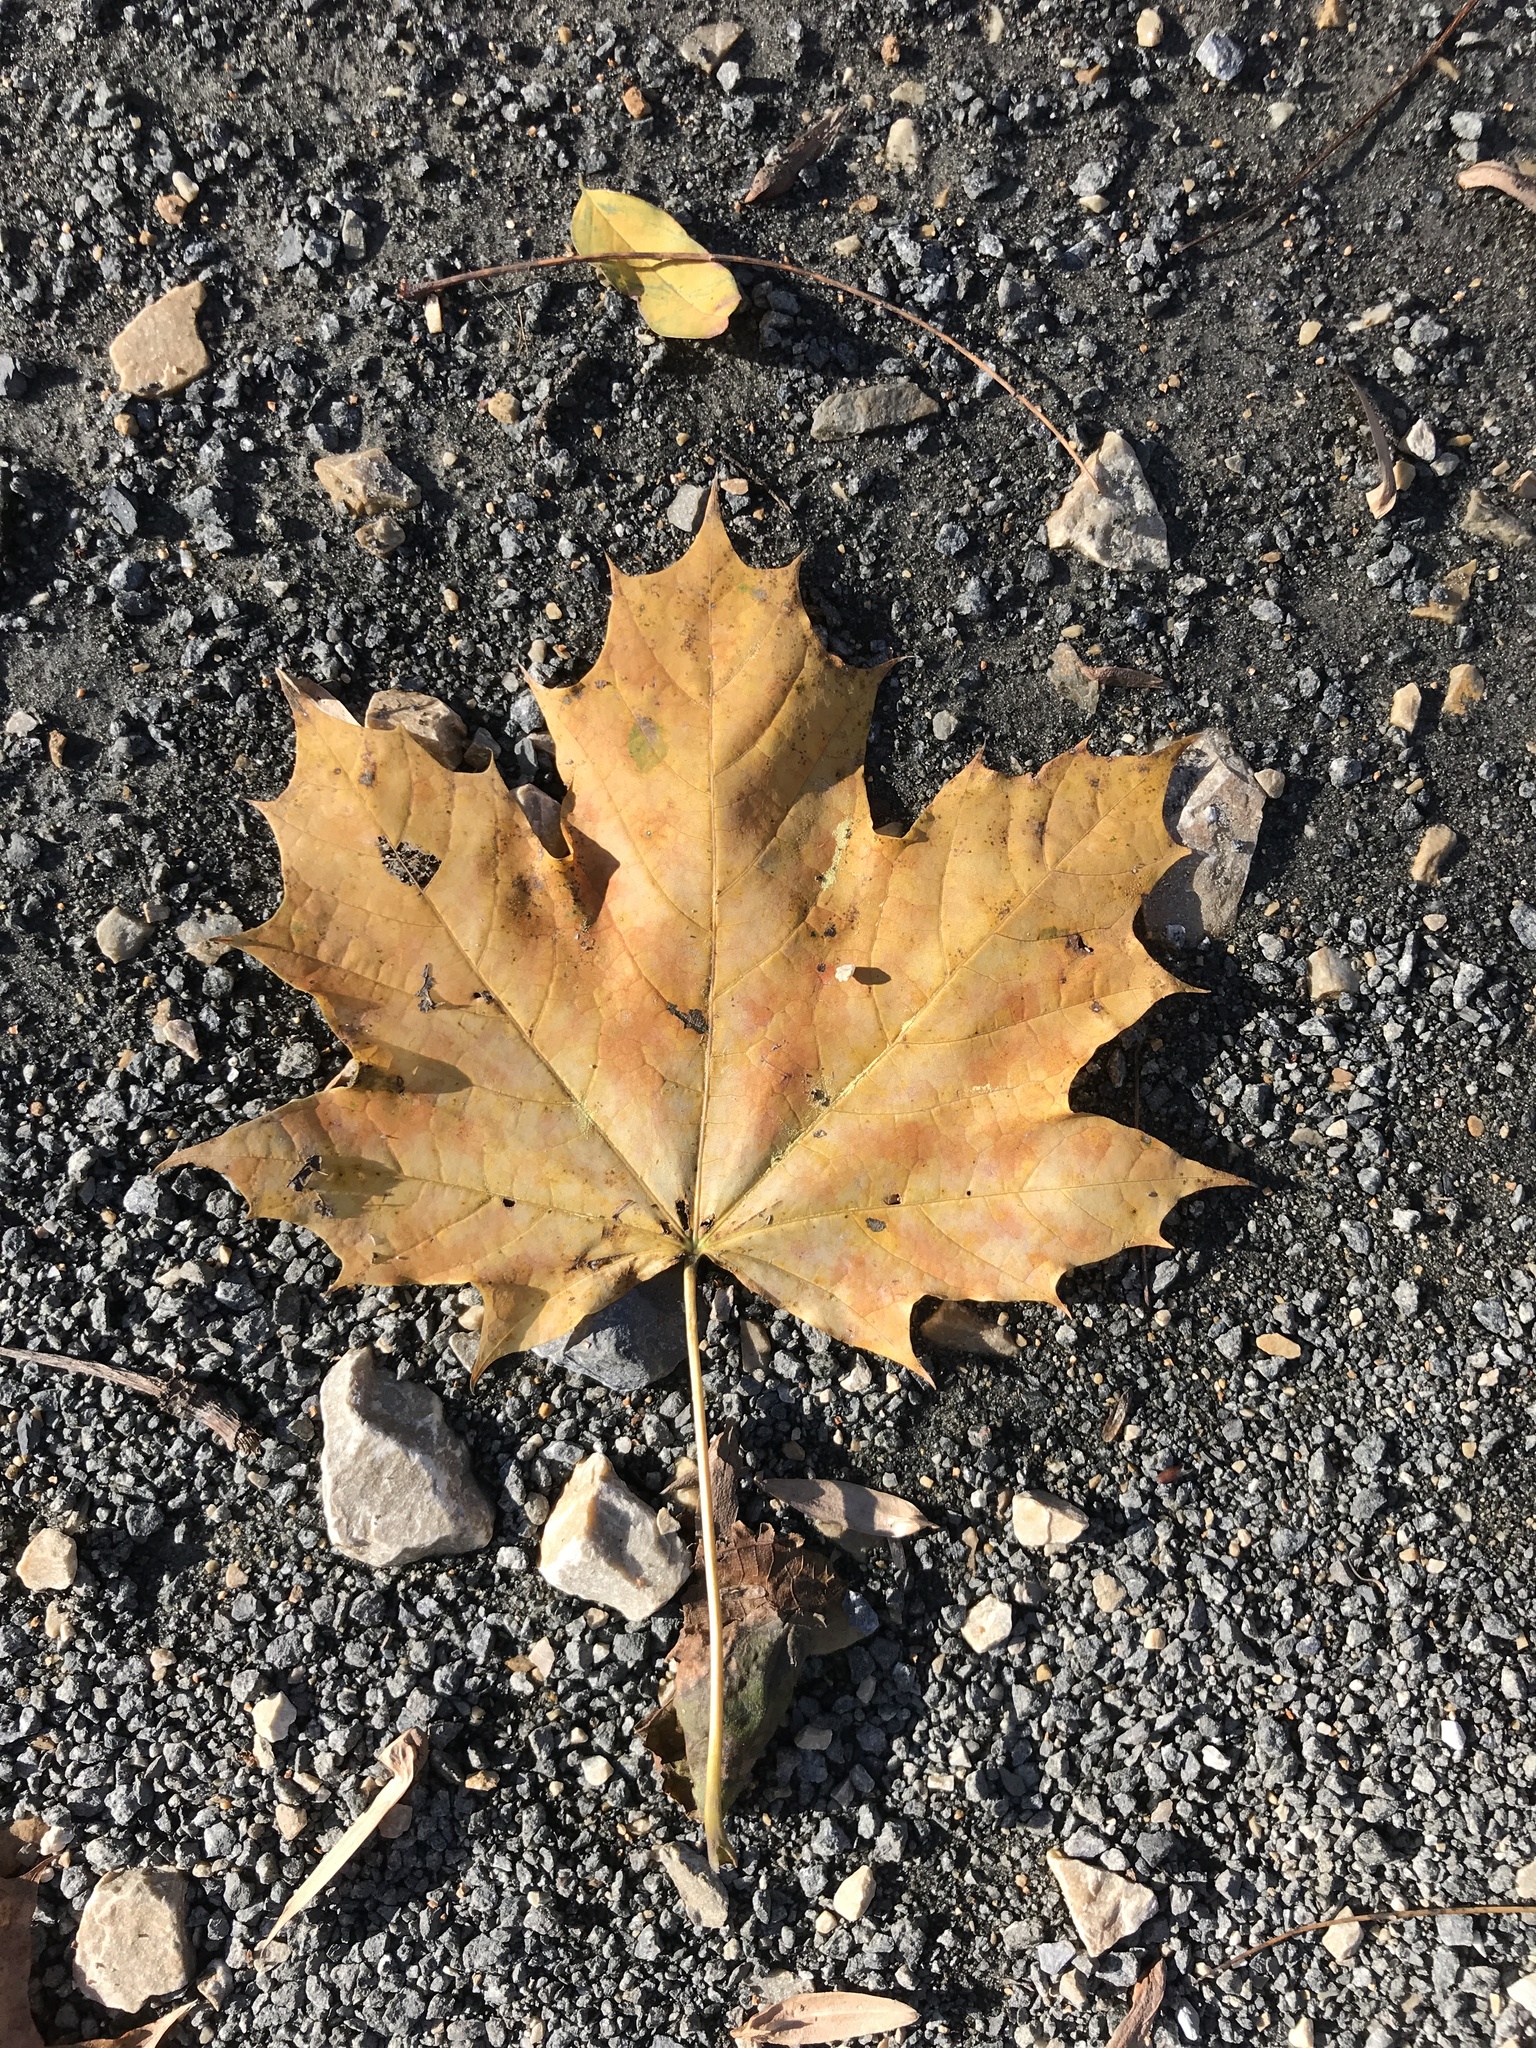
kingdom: Plantae
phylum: Tracheophyta
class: Magnoliopsida
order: Sapindales
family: Sapindaceae
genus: Acer
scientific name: Acer platanoides
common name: Norway maple
